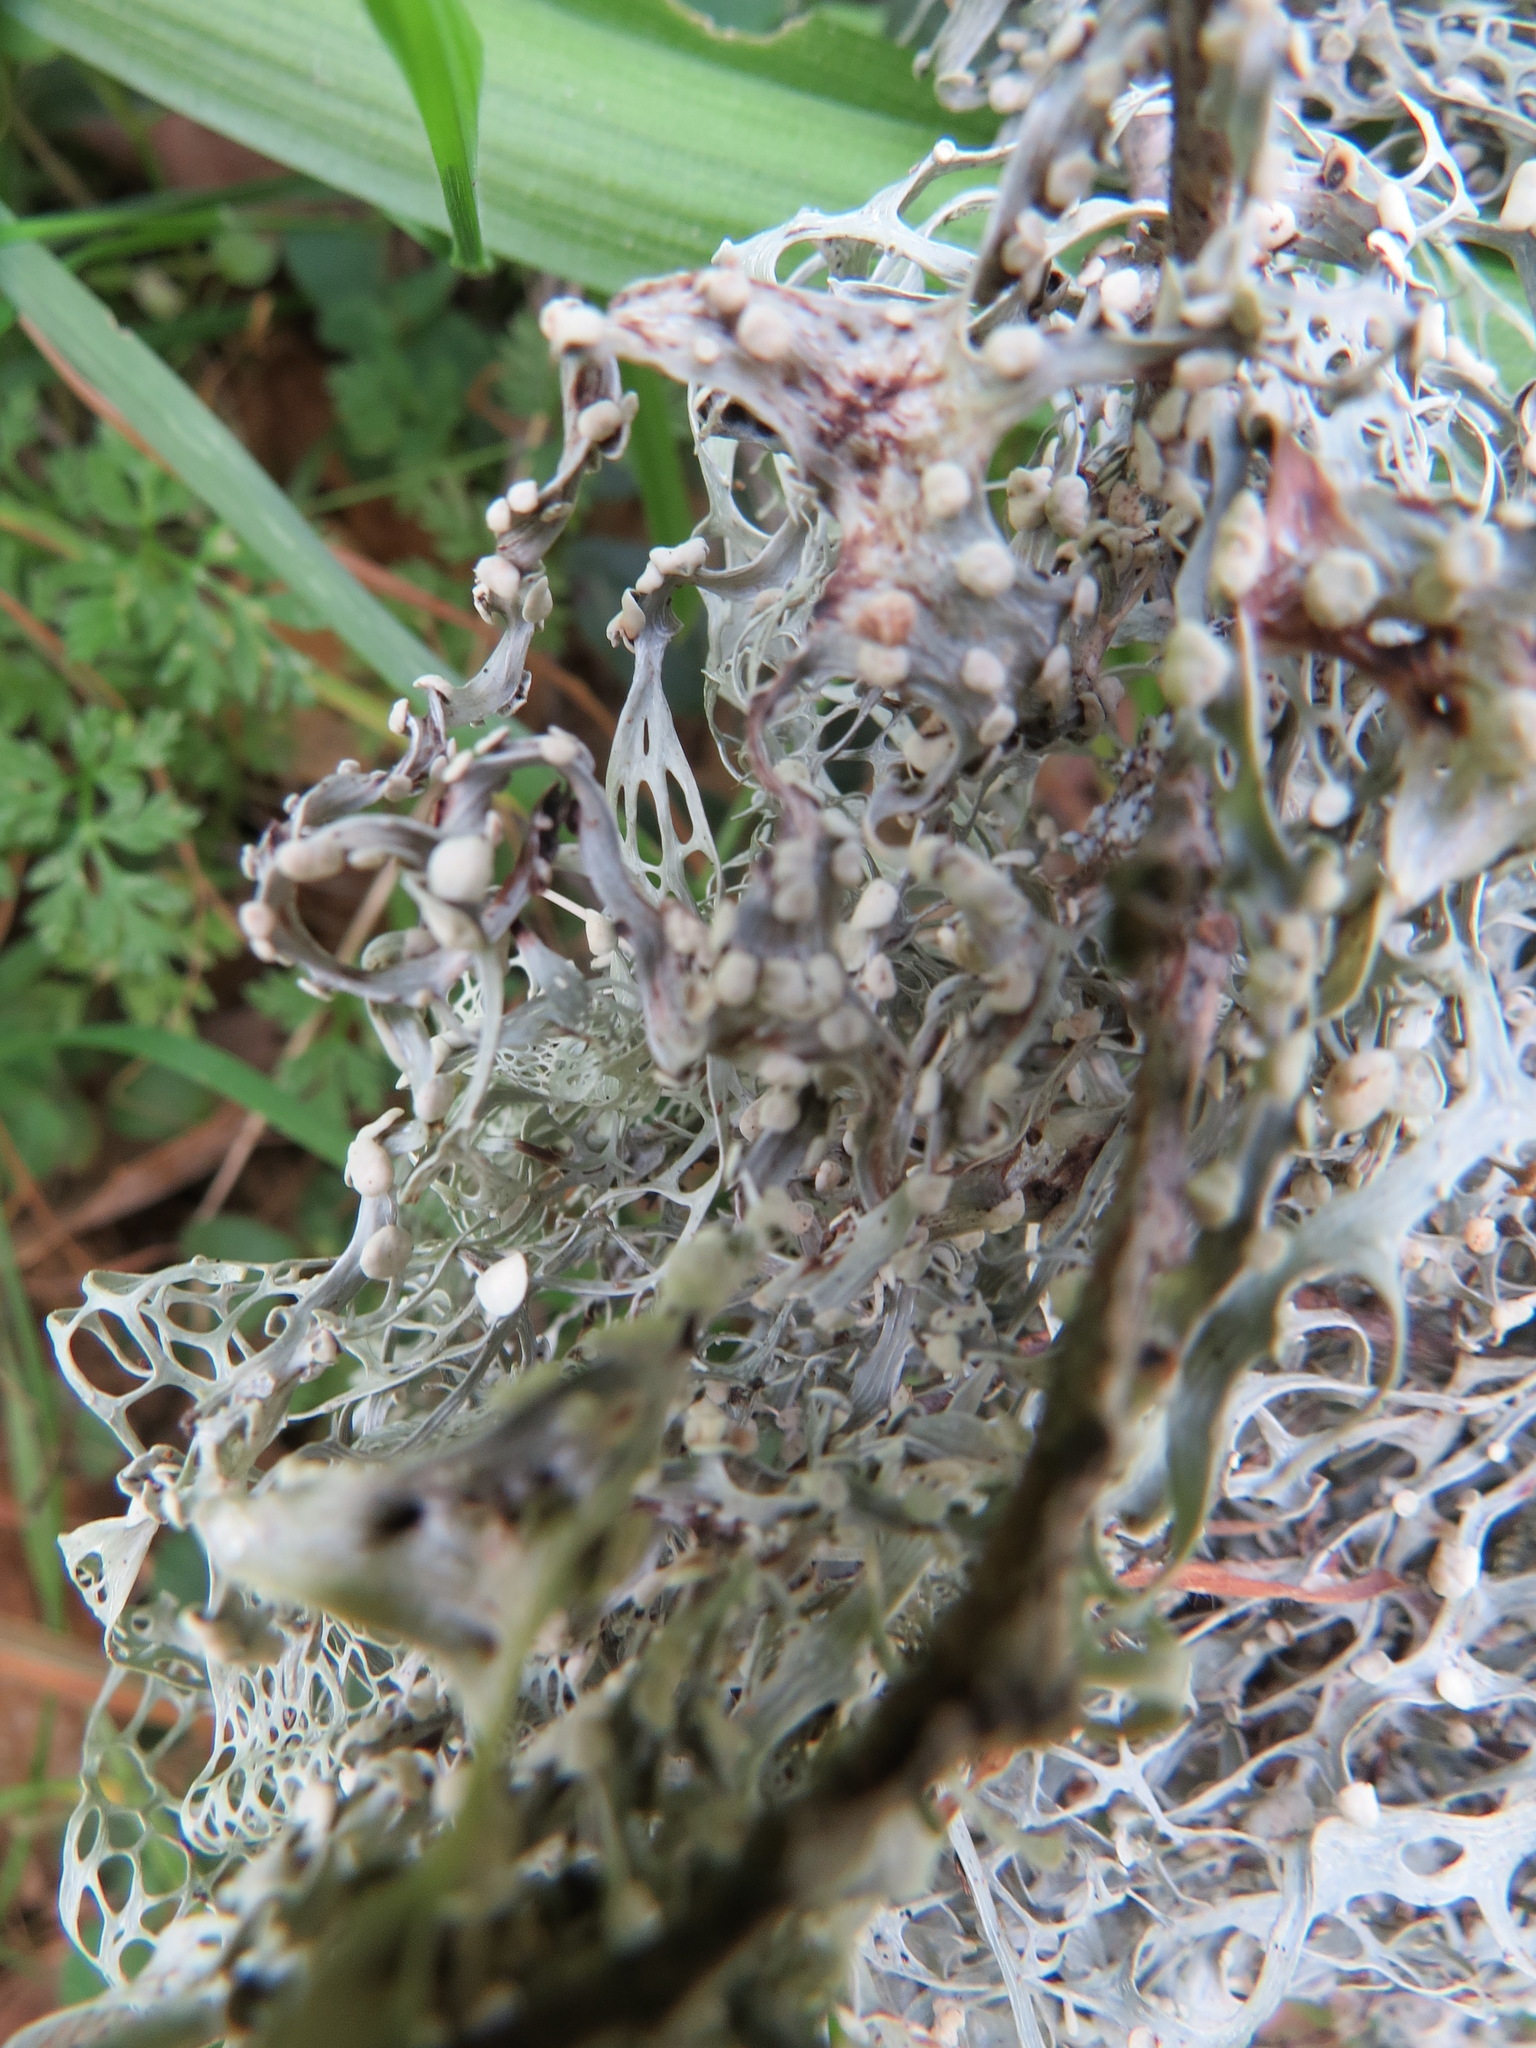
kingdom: Fungi
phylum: Ascomycota
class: Lecanoromycetes
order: Lecanorales
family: Ramalinaceae
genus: Ramalina
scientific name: Ramalina menziesii
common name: Lace lichen
